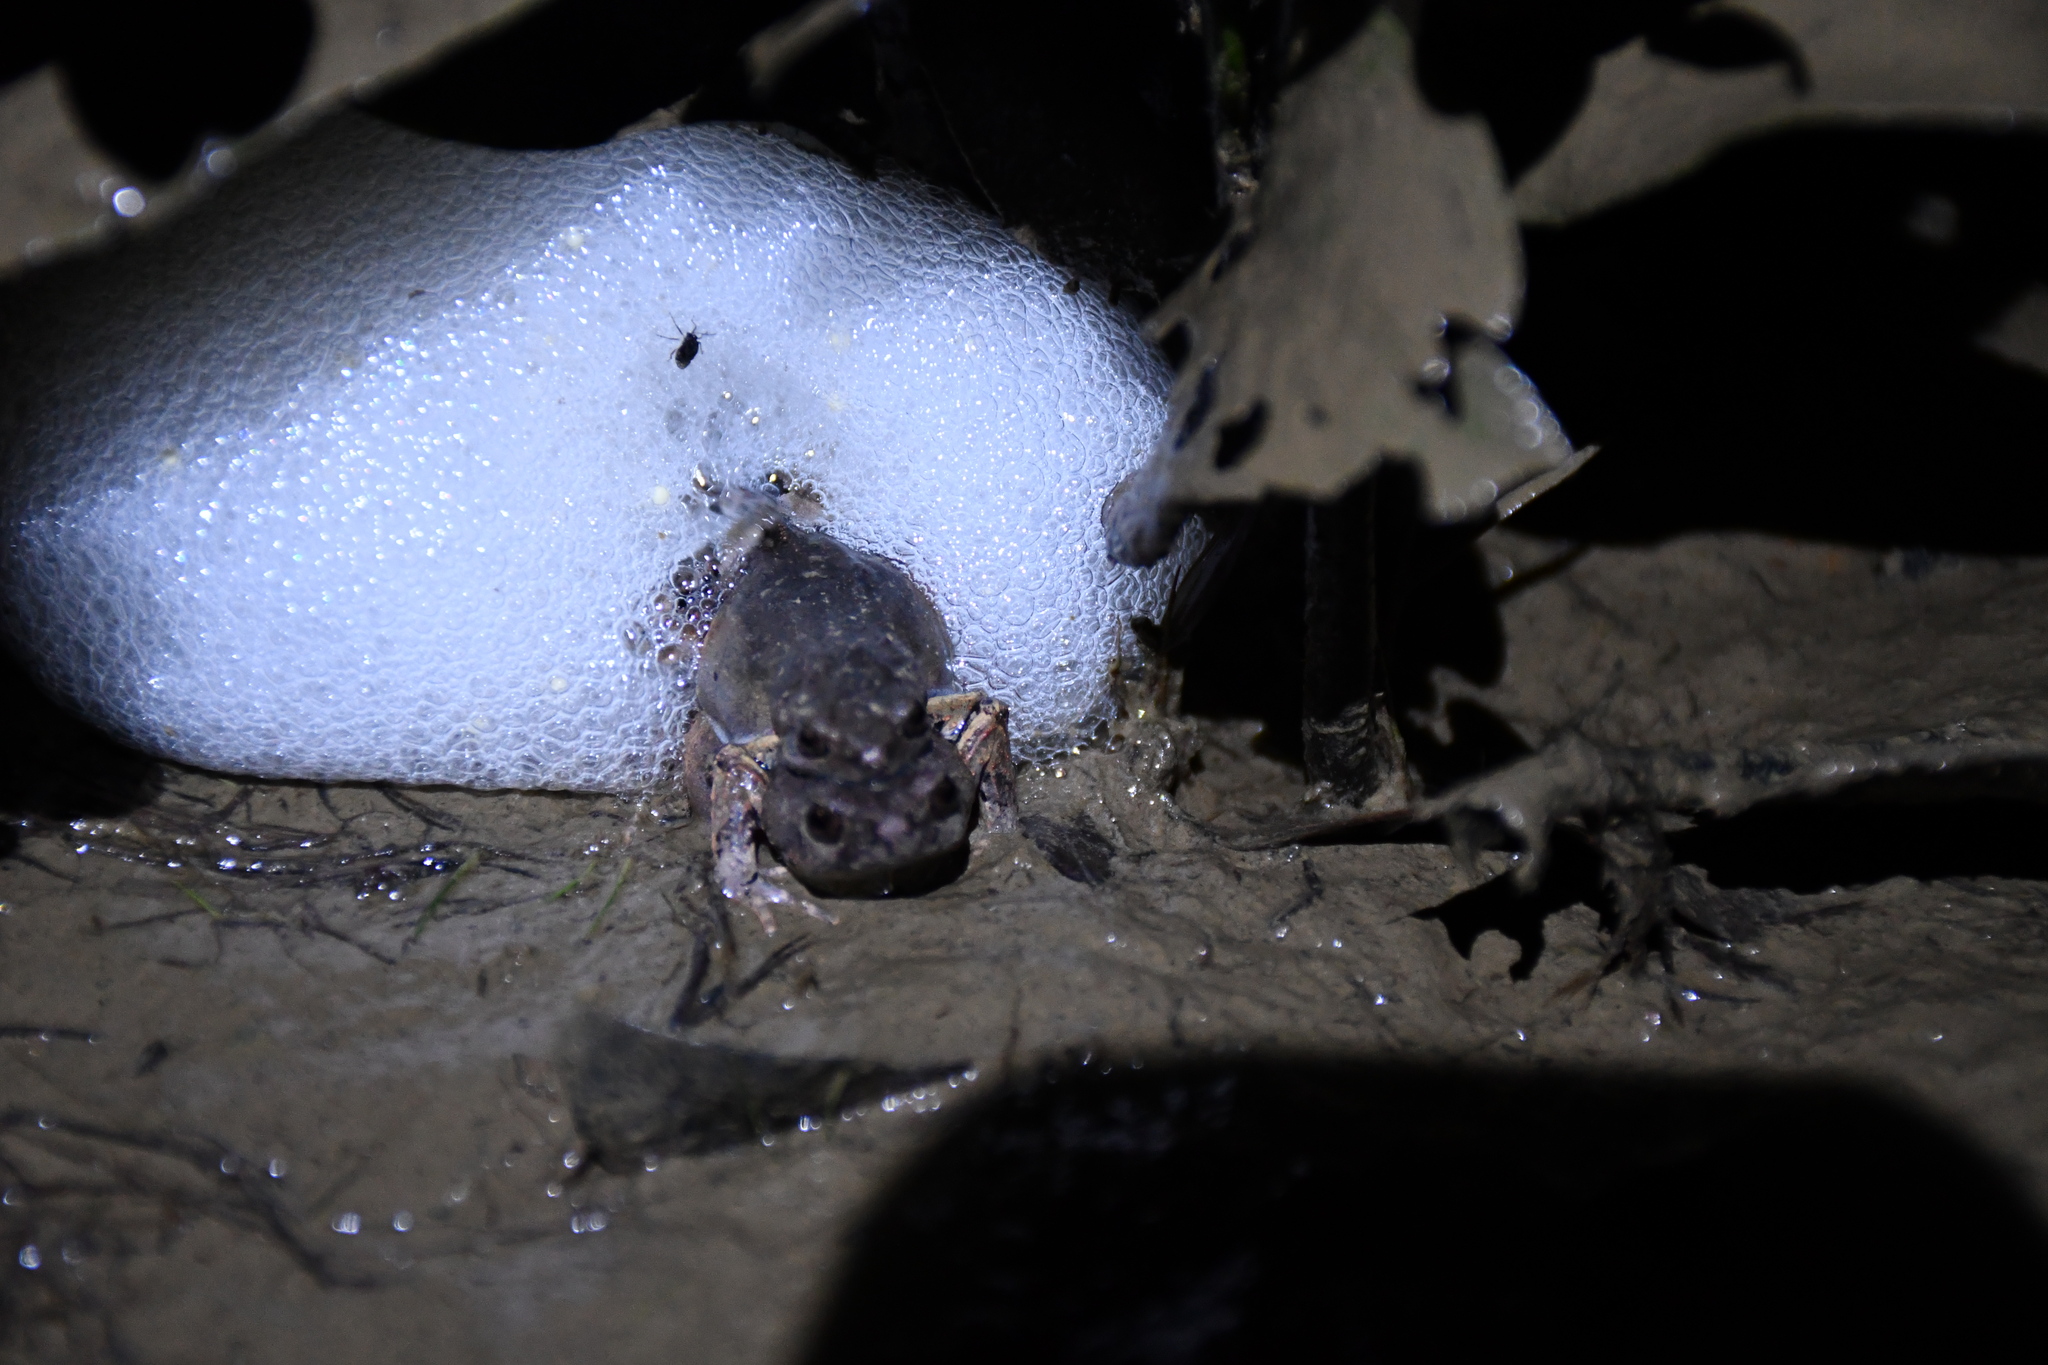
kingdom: Animalia
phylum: Chordata
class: Amphibia
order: Anura
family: Leptodactylidae
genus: Engystomops
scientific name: Engystomops freibergi
